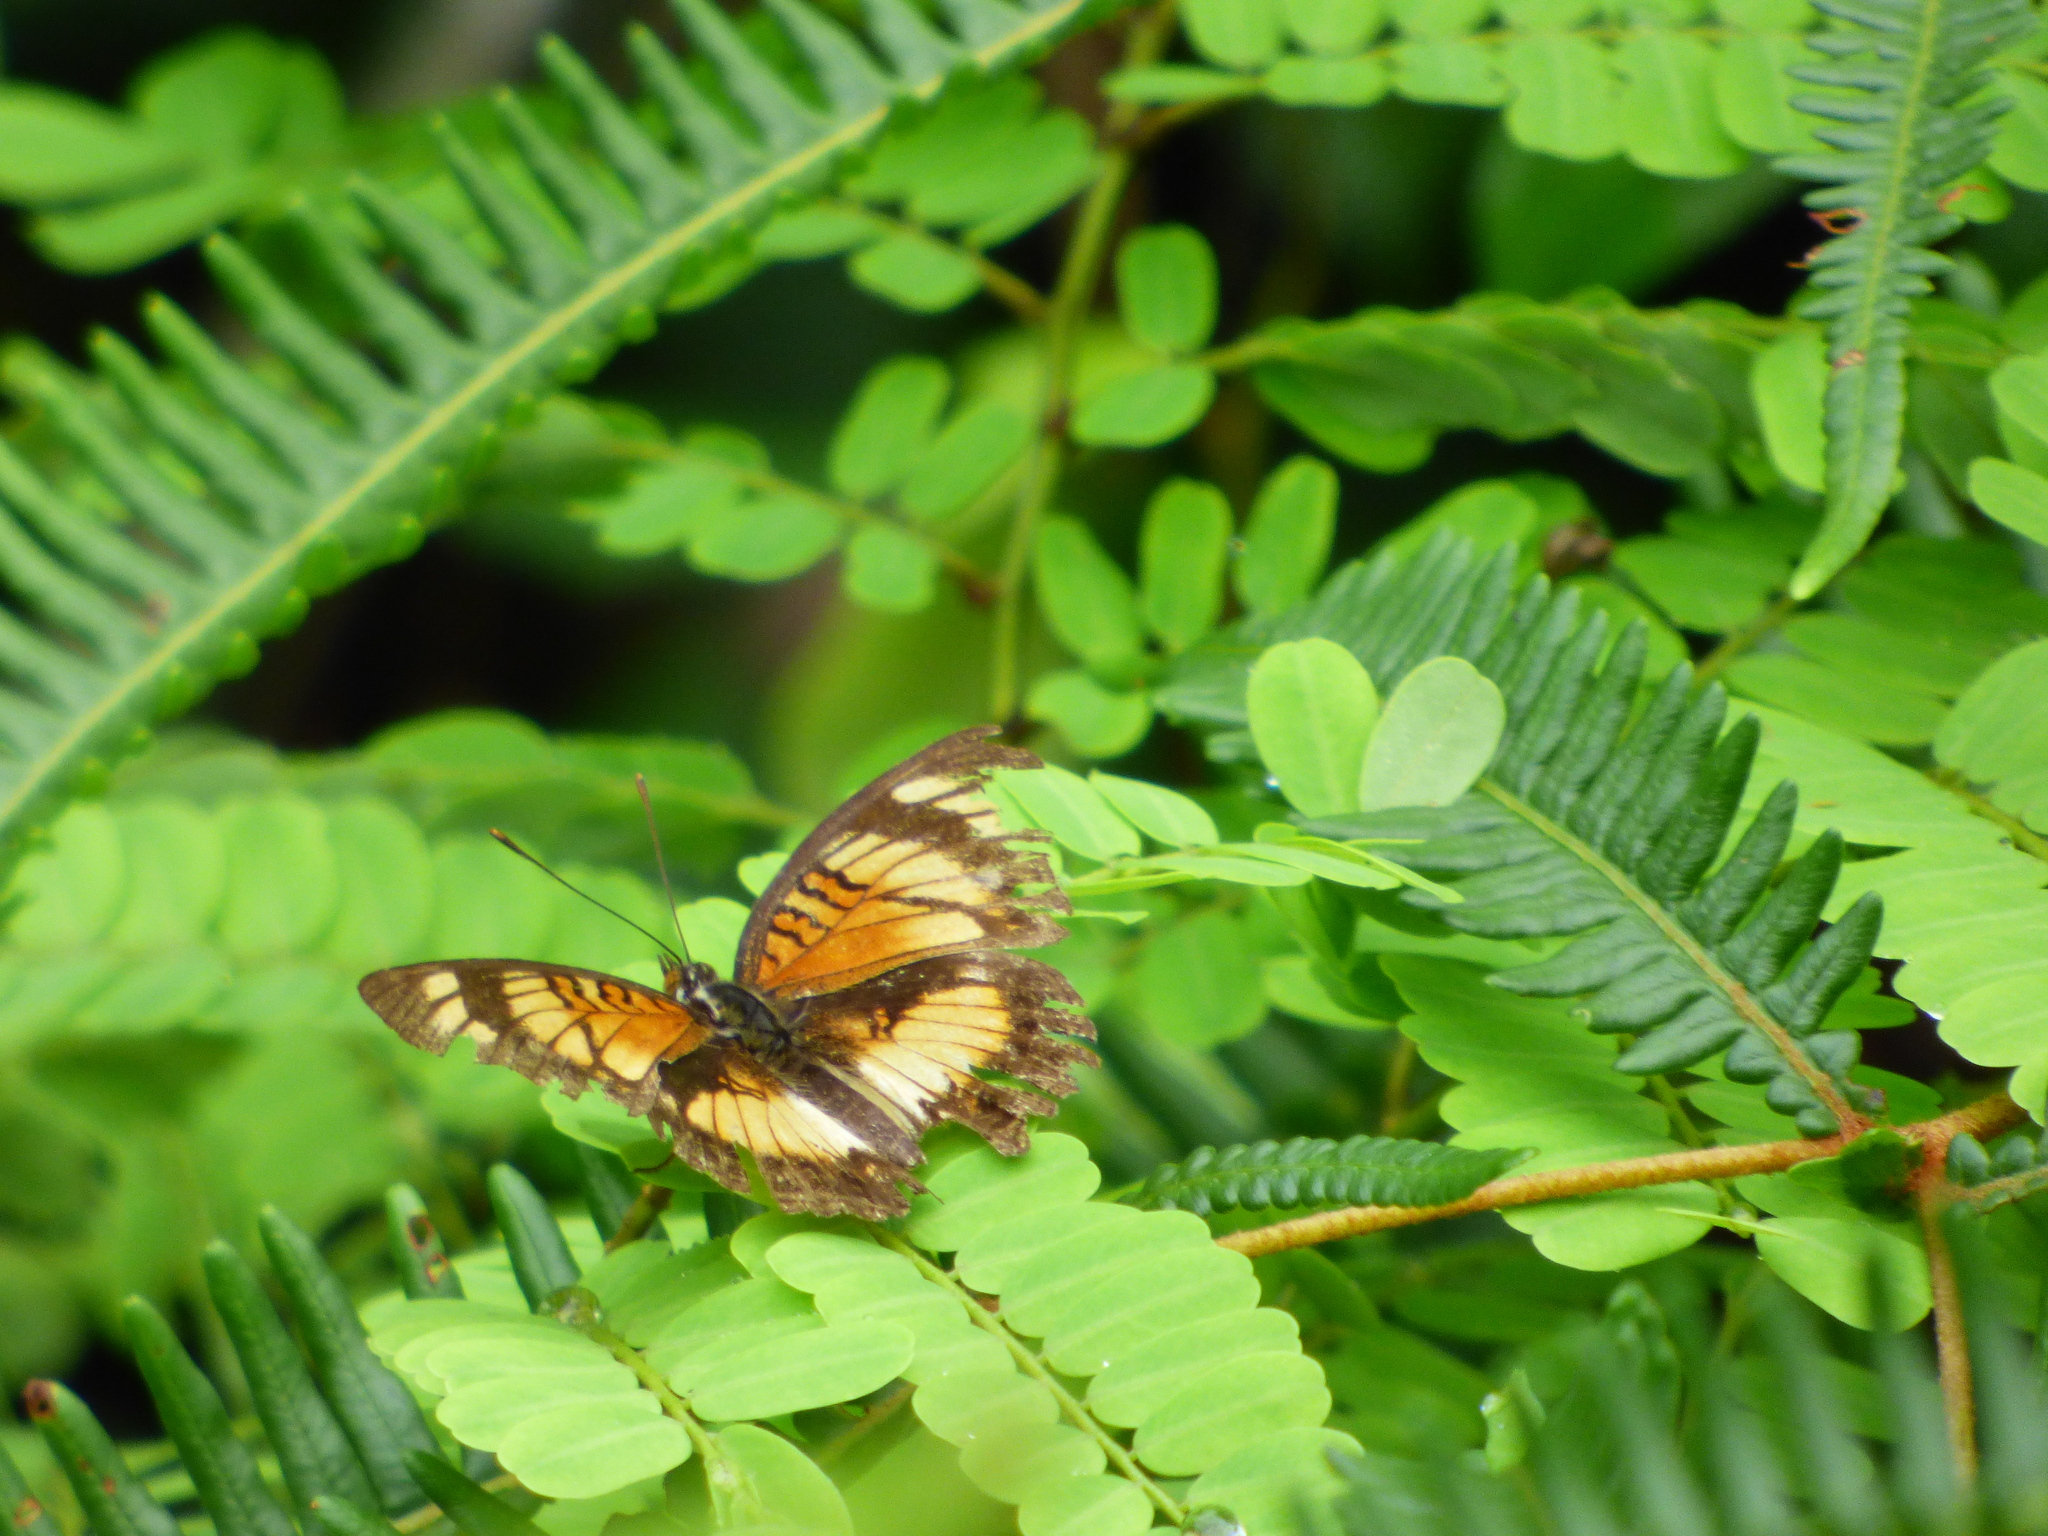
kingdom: Animalia
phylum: Arthropoda
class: Insecta
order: Lepidoptera
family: Nymphalidae
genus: Junonia
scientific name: Junonia sophia
